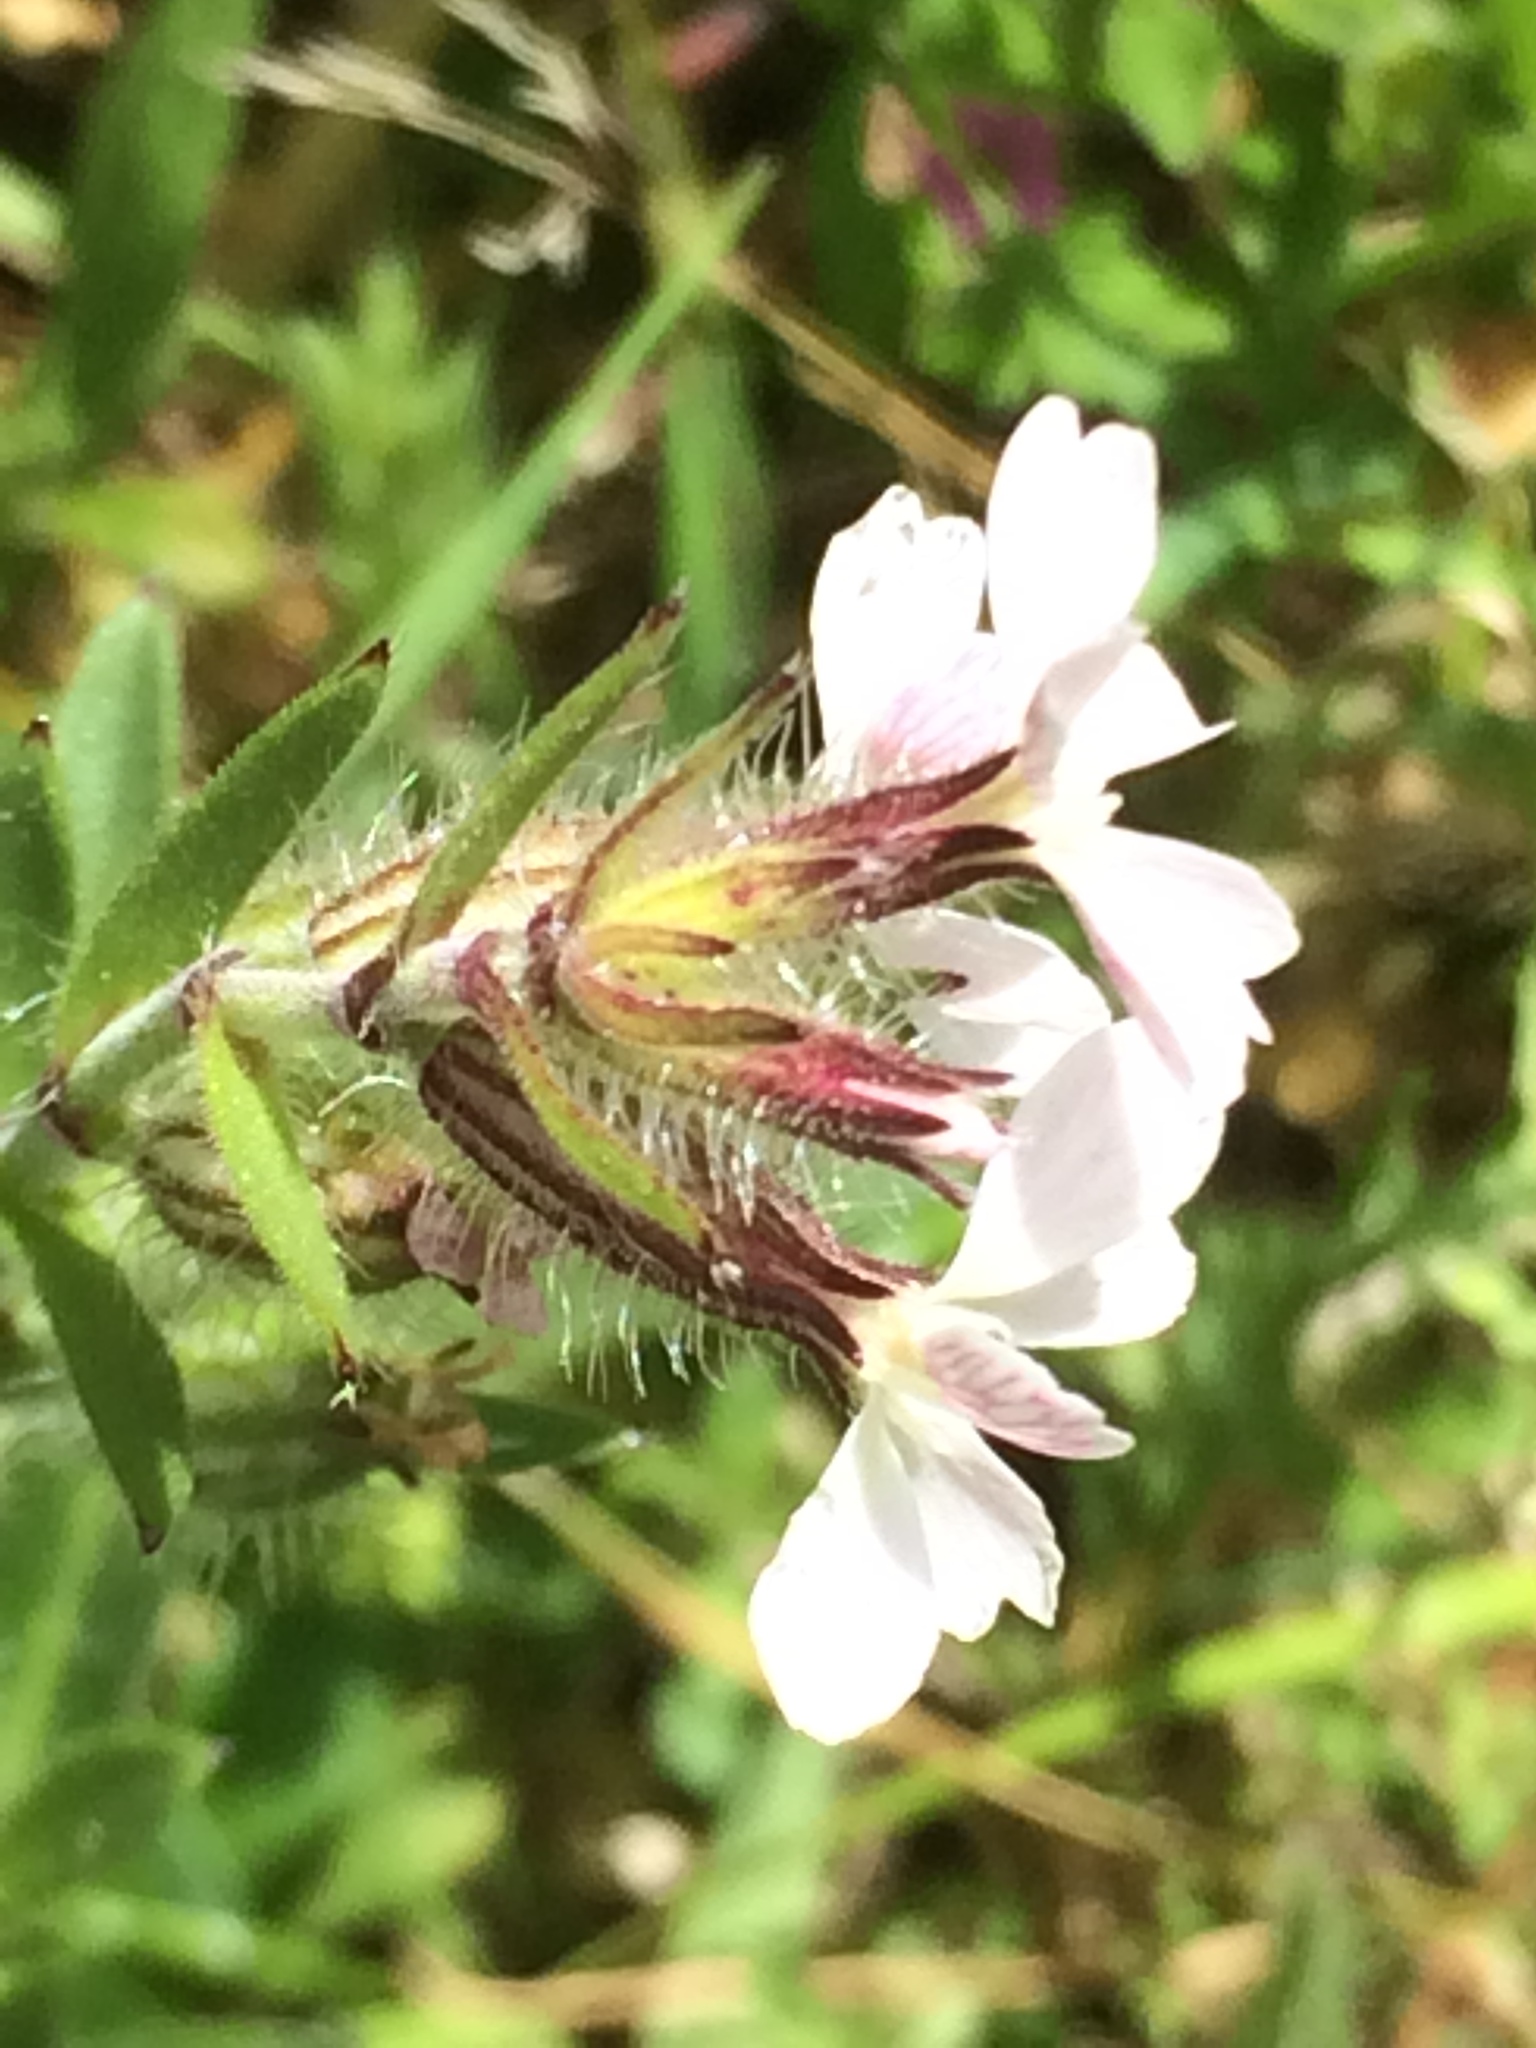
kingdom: Plantae
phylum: Tracheophyta
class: Magnoliopsida
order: Caryophyllales
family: Caryophyllaceae
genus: Silene
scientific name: Silene gallica
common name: Small-flowered catchfly
